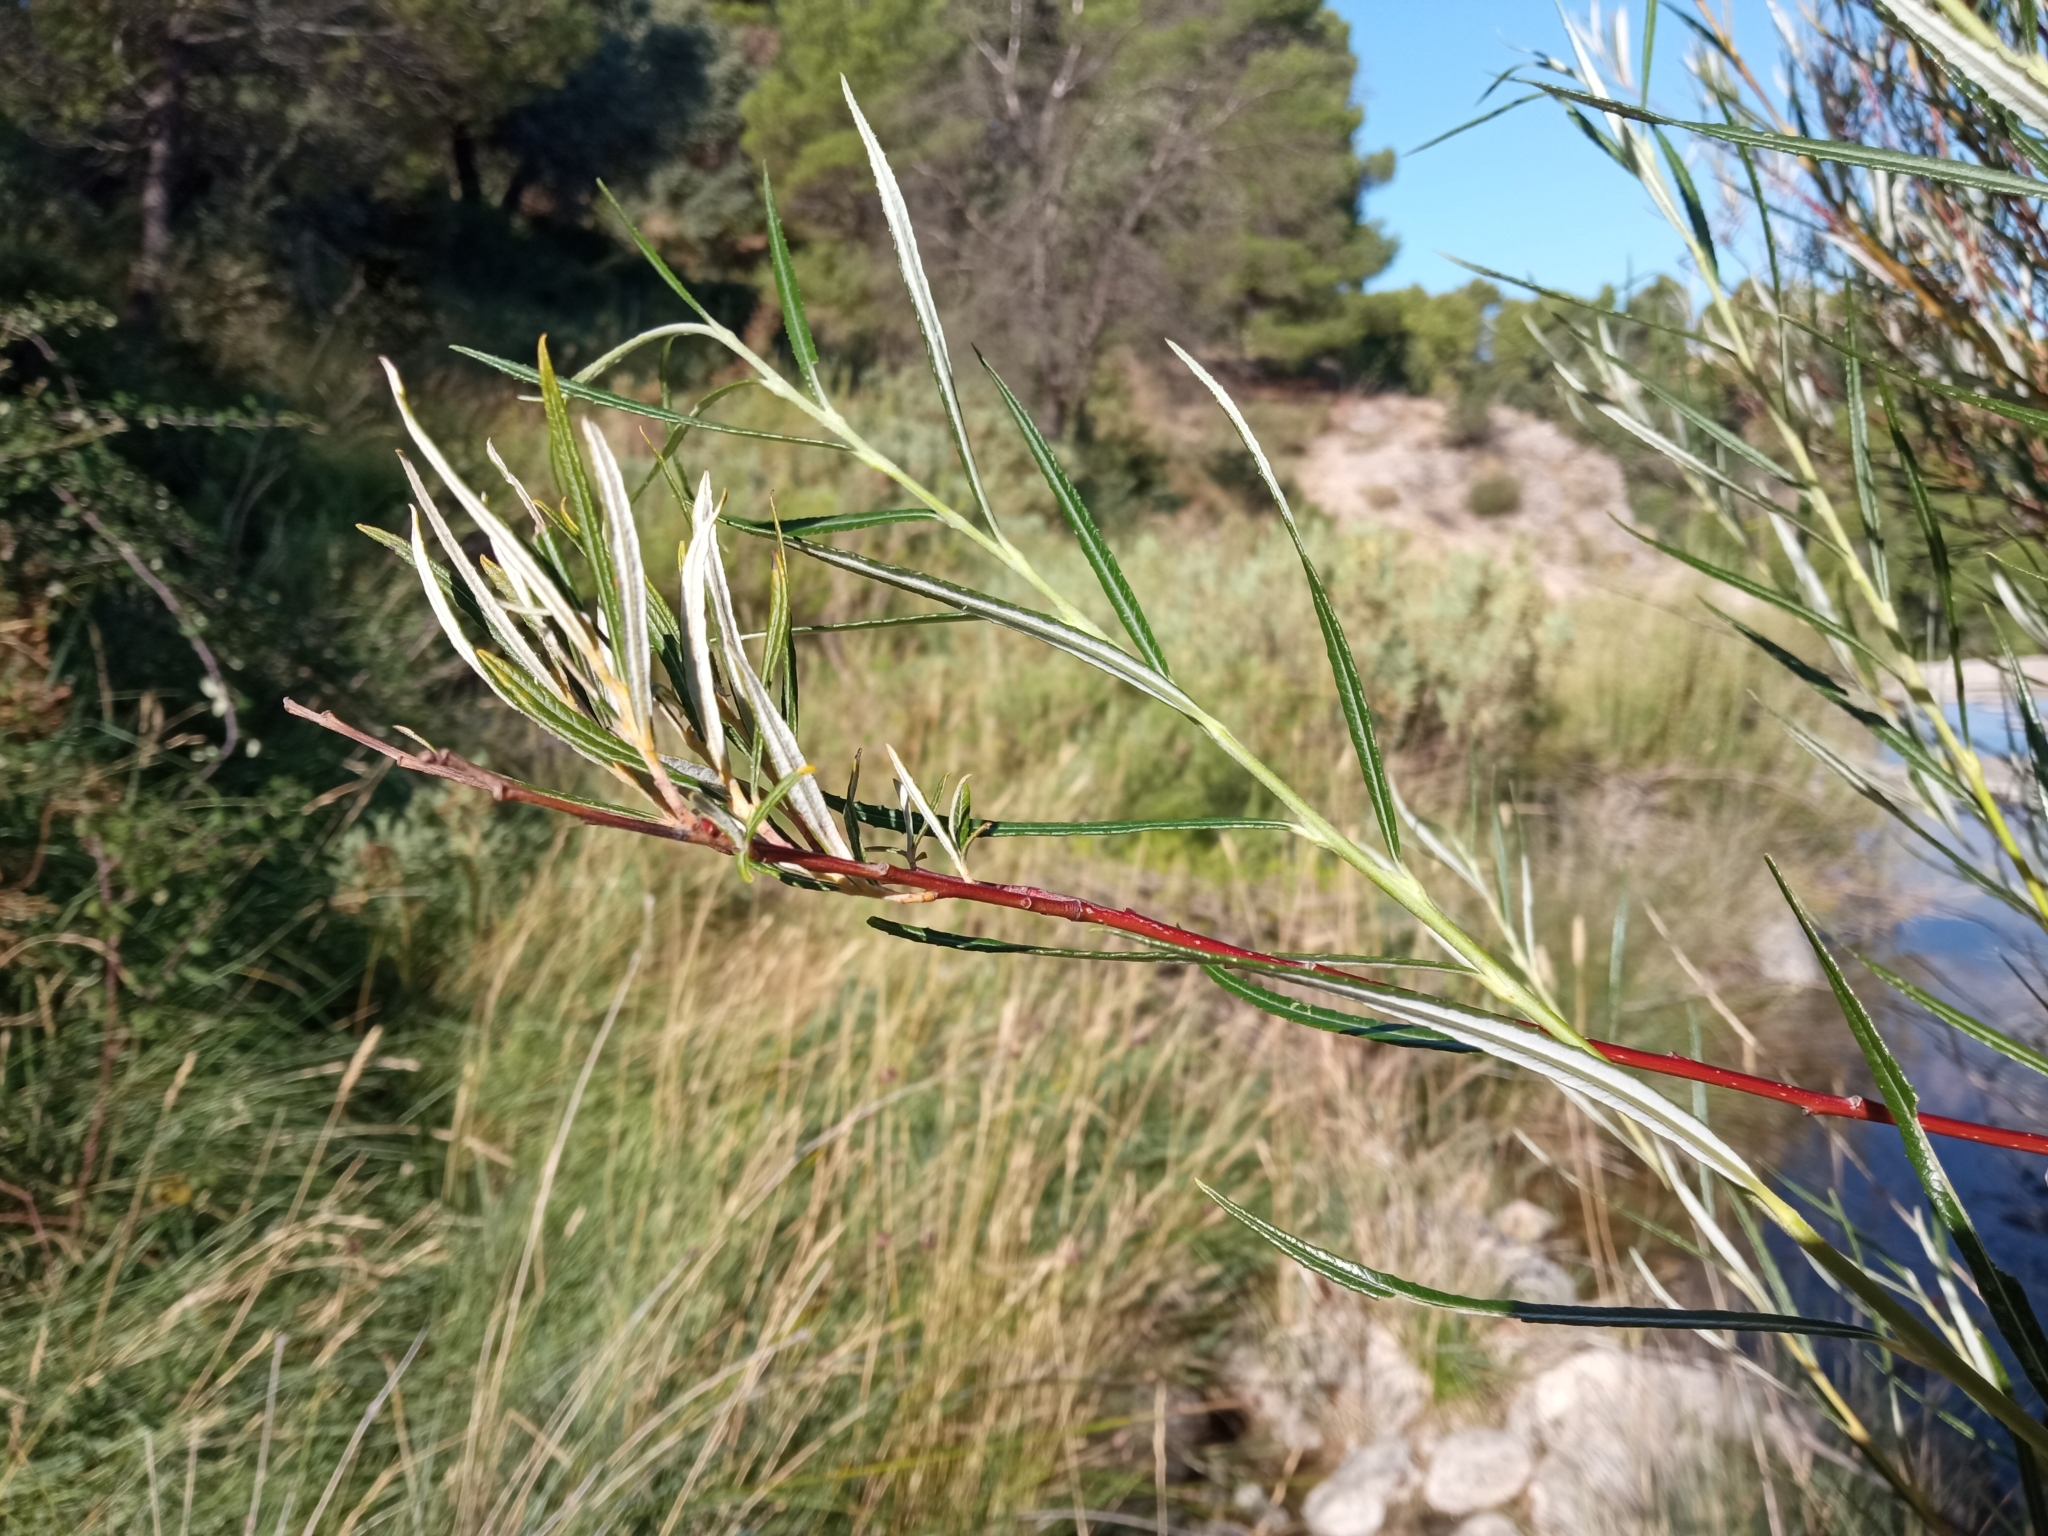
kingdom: Plantae
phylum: Tracheophyta
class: Magnoliopsida
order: Malpighiales
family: Salicaceae
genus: Salix
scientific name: Salix eleagnos
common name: Elaeagnus willow
